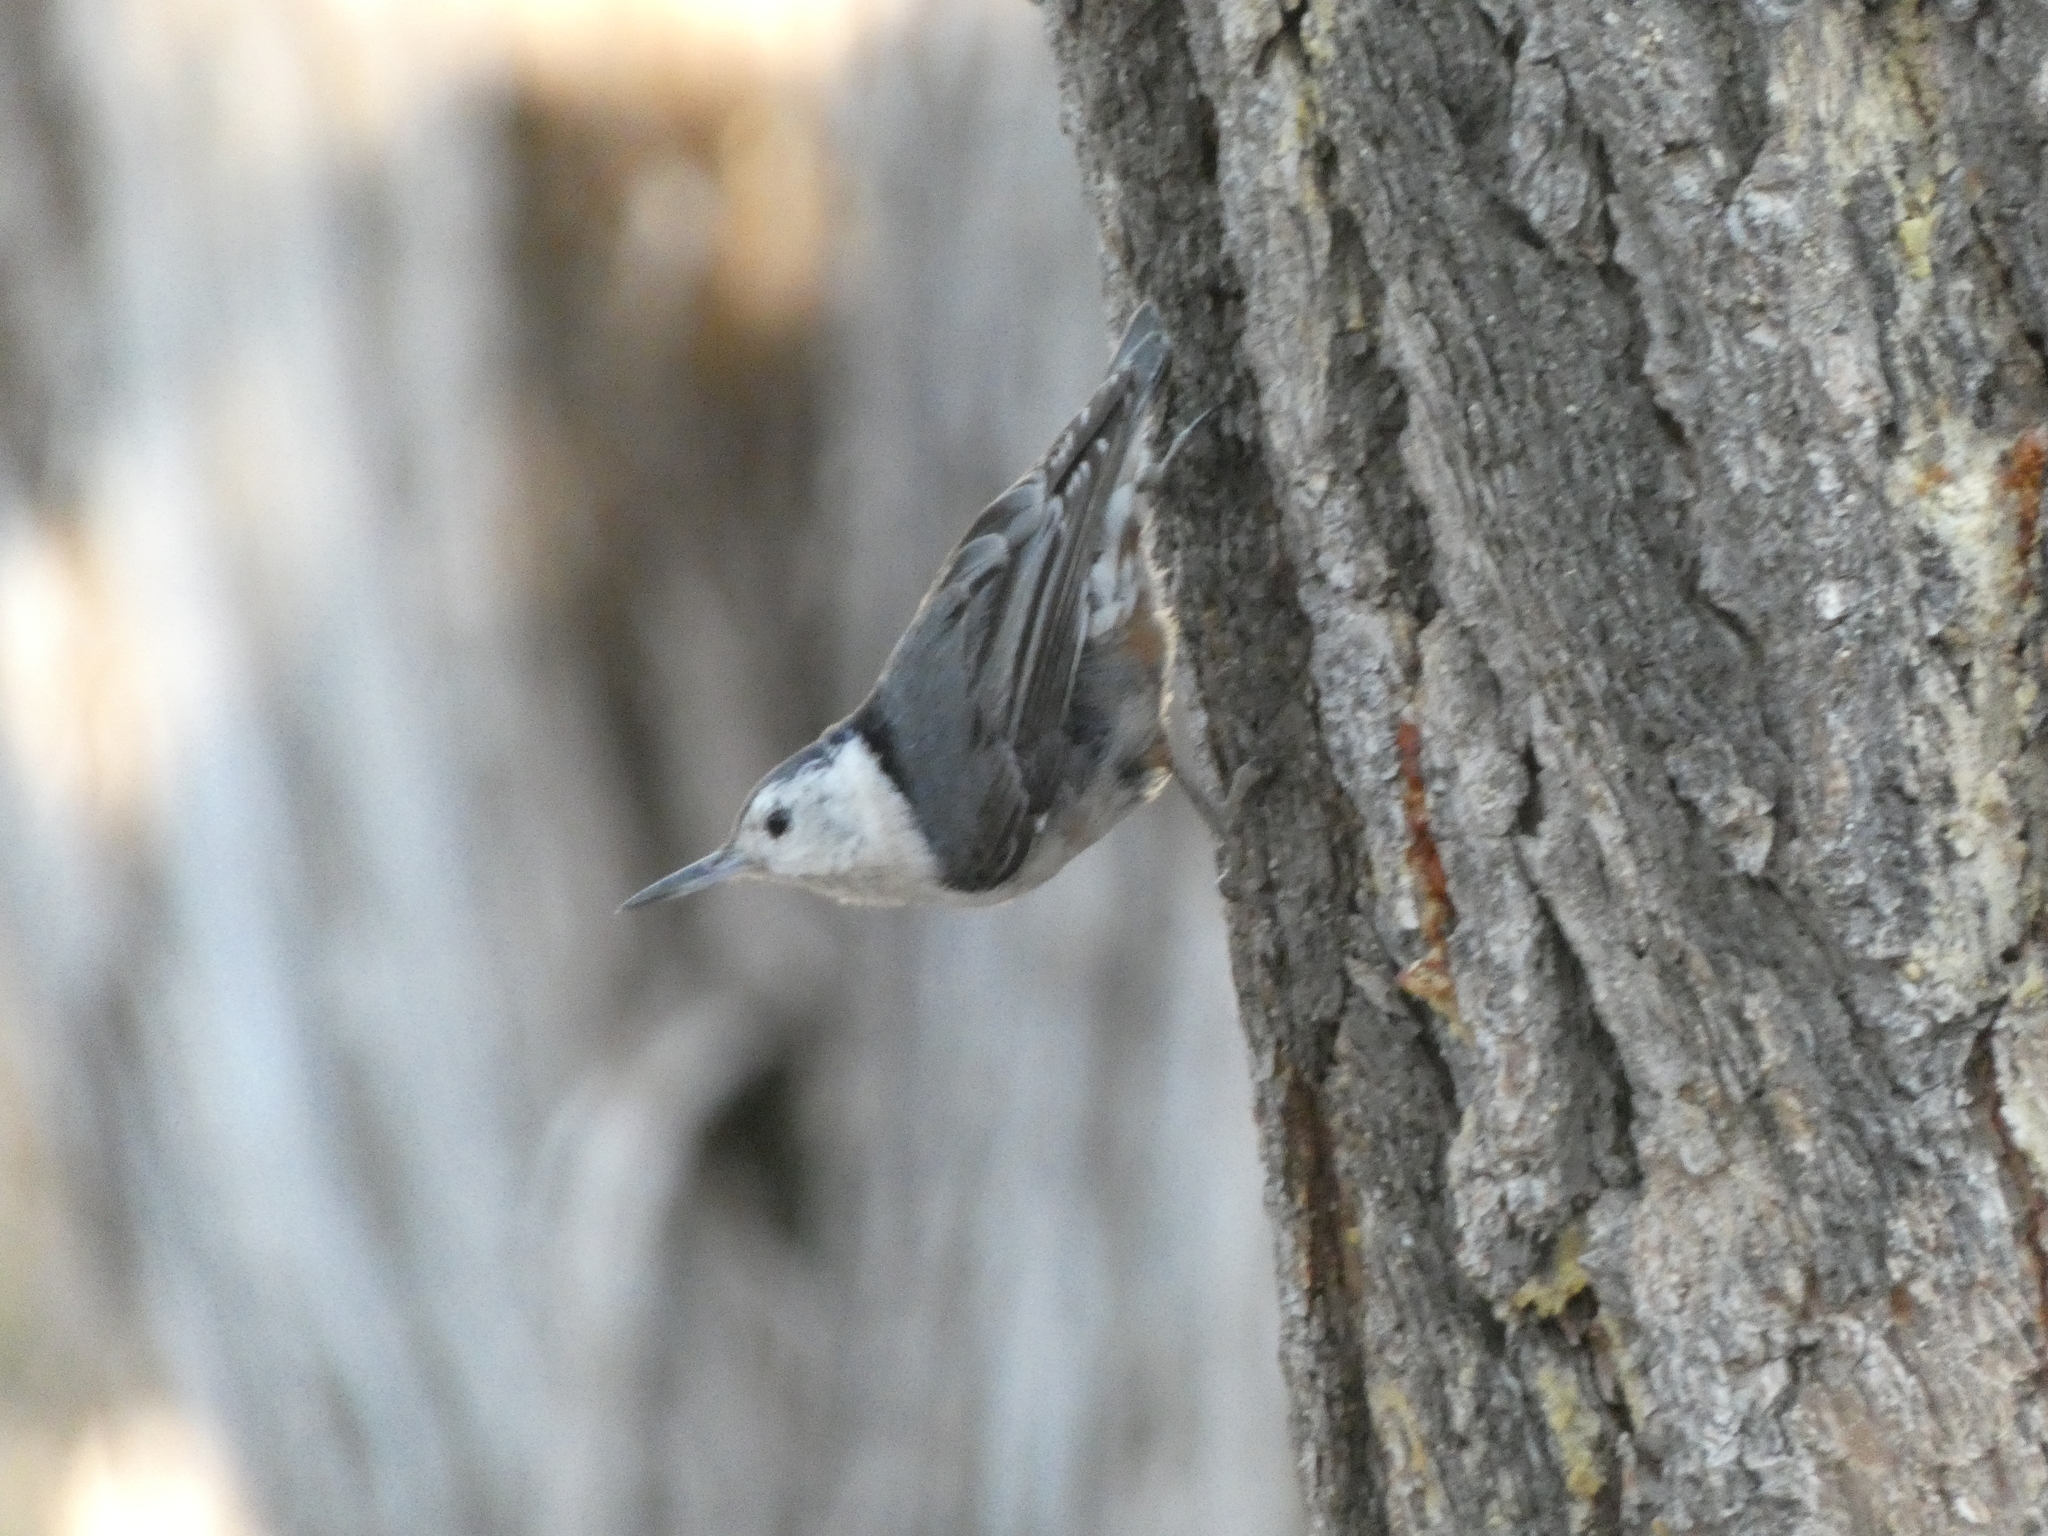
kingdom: Animalia
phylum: Chordata
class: Aves
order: Passeriformes
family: Sittidae
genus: Sitta
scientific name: Sitta carolinensis
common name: White-breasted nuthatch
